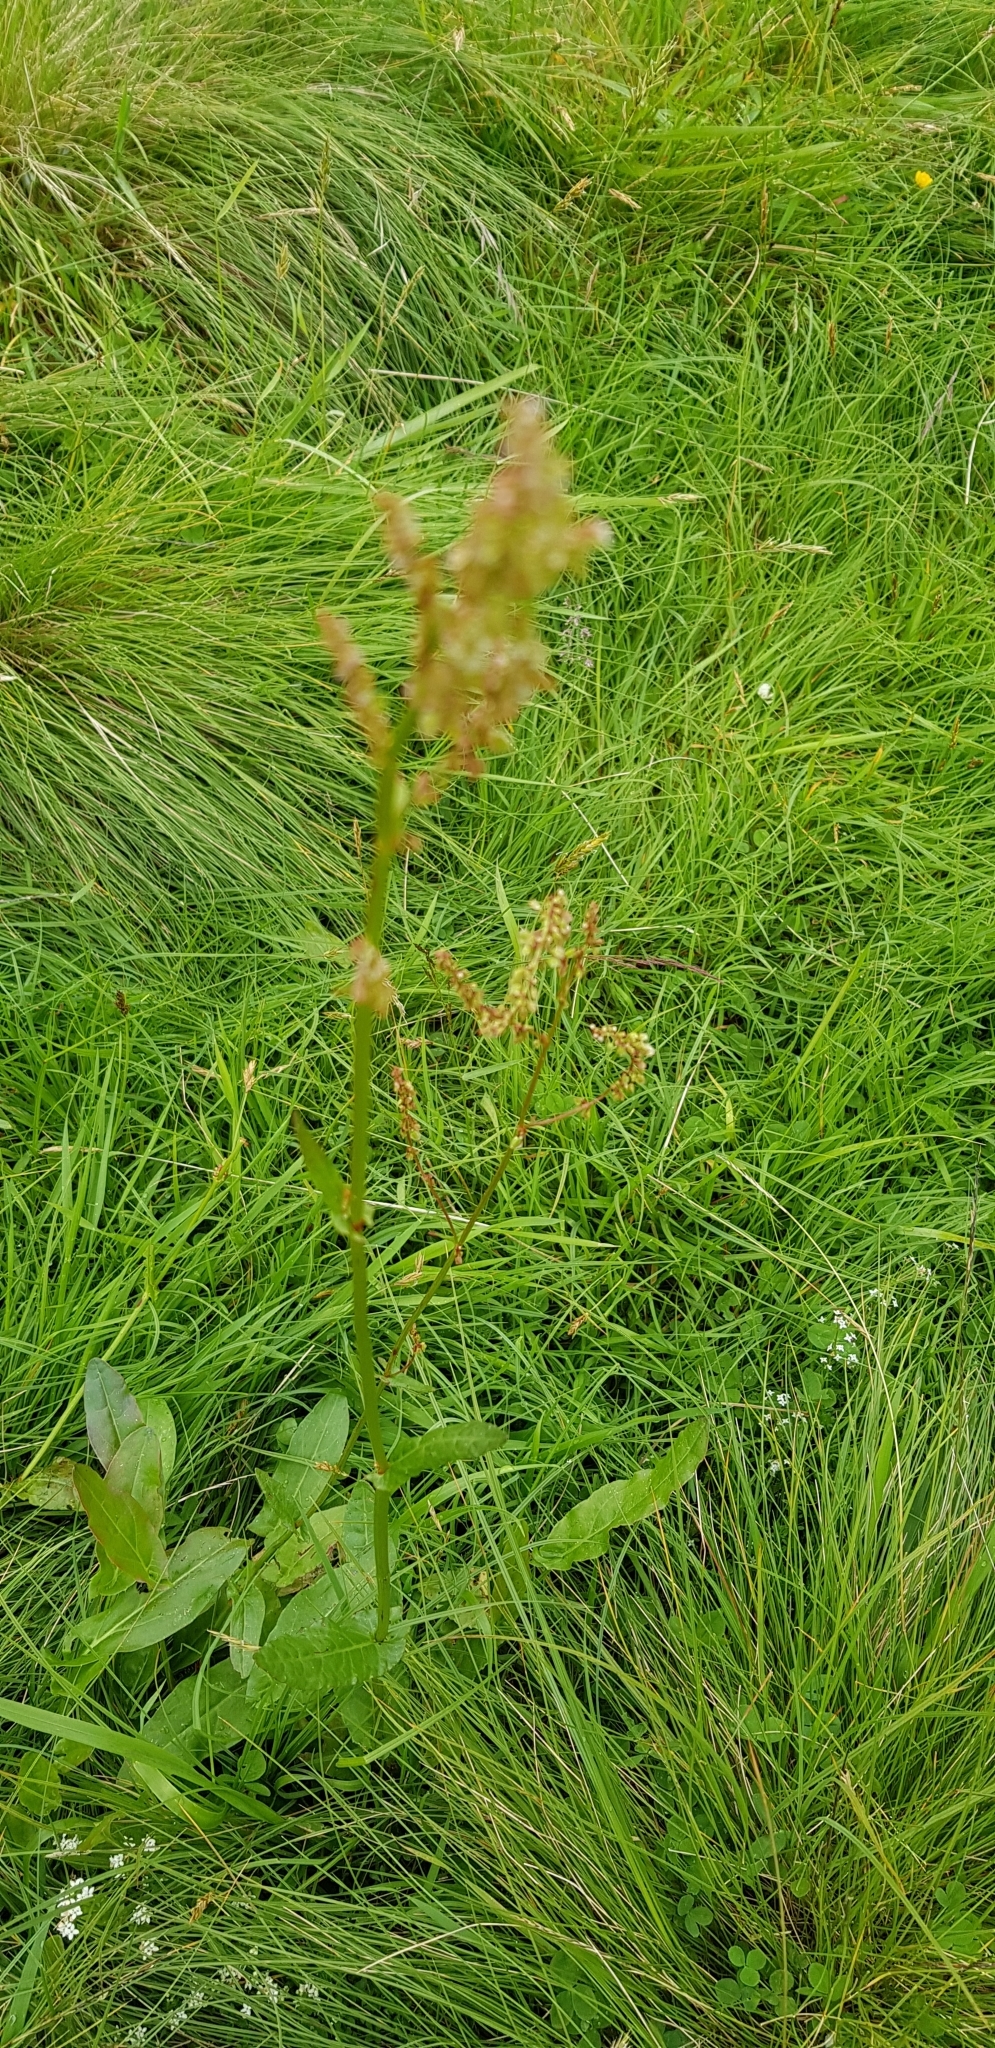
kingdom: Plantae
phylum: Tracheophyta
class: Magnoliopsida
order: Caryophyllales
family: Polygonaceae
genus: Rumex
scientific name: Rumex acetosa
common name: Garden sorrel
